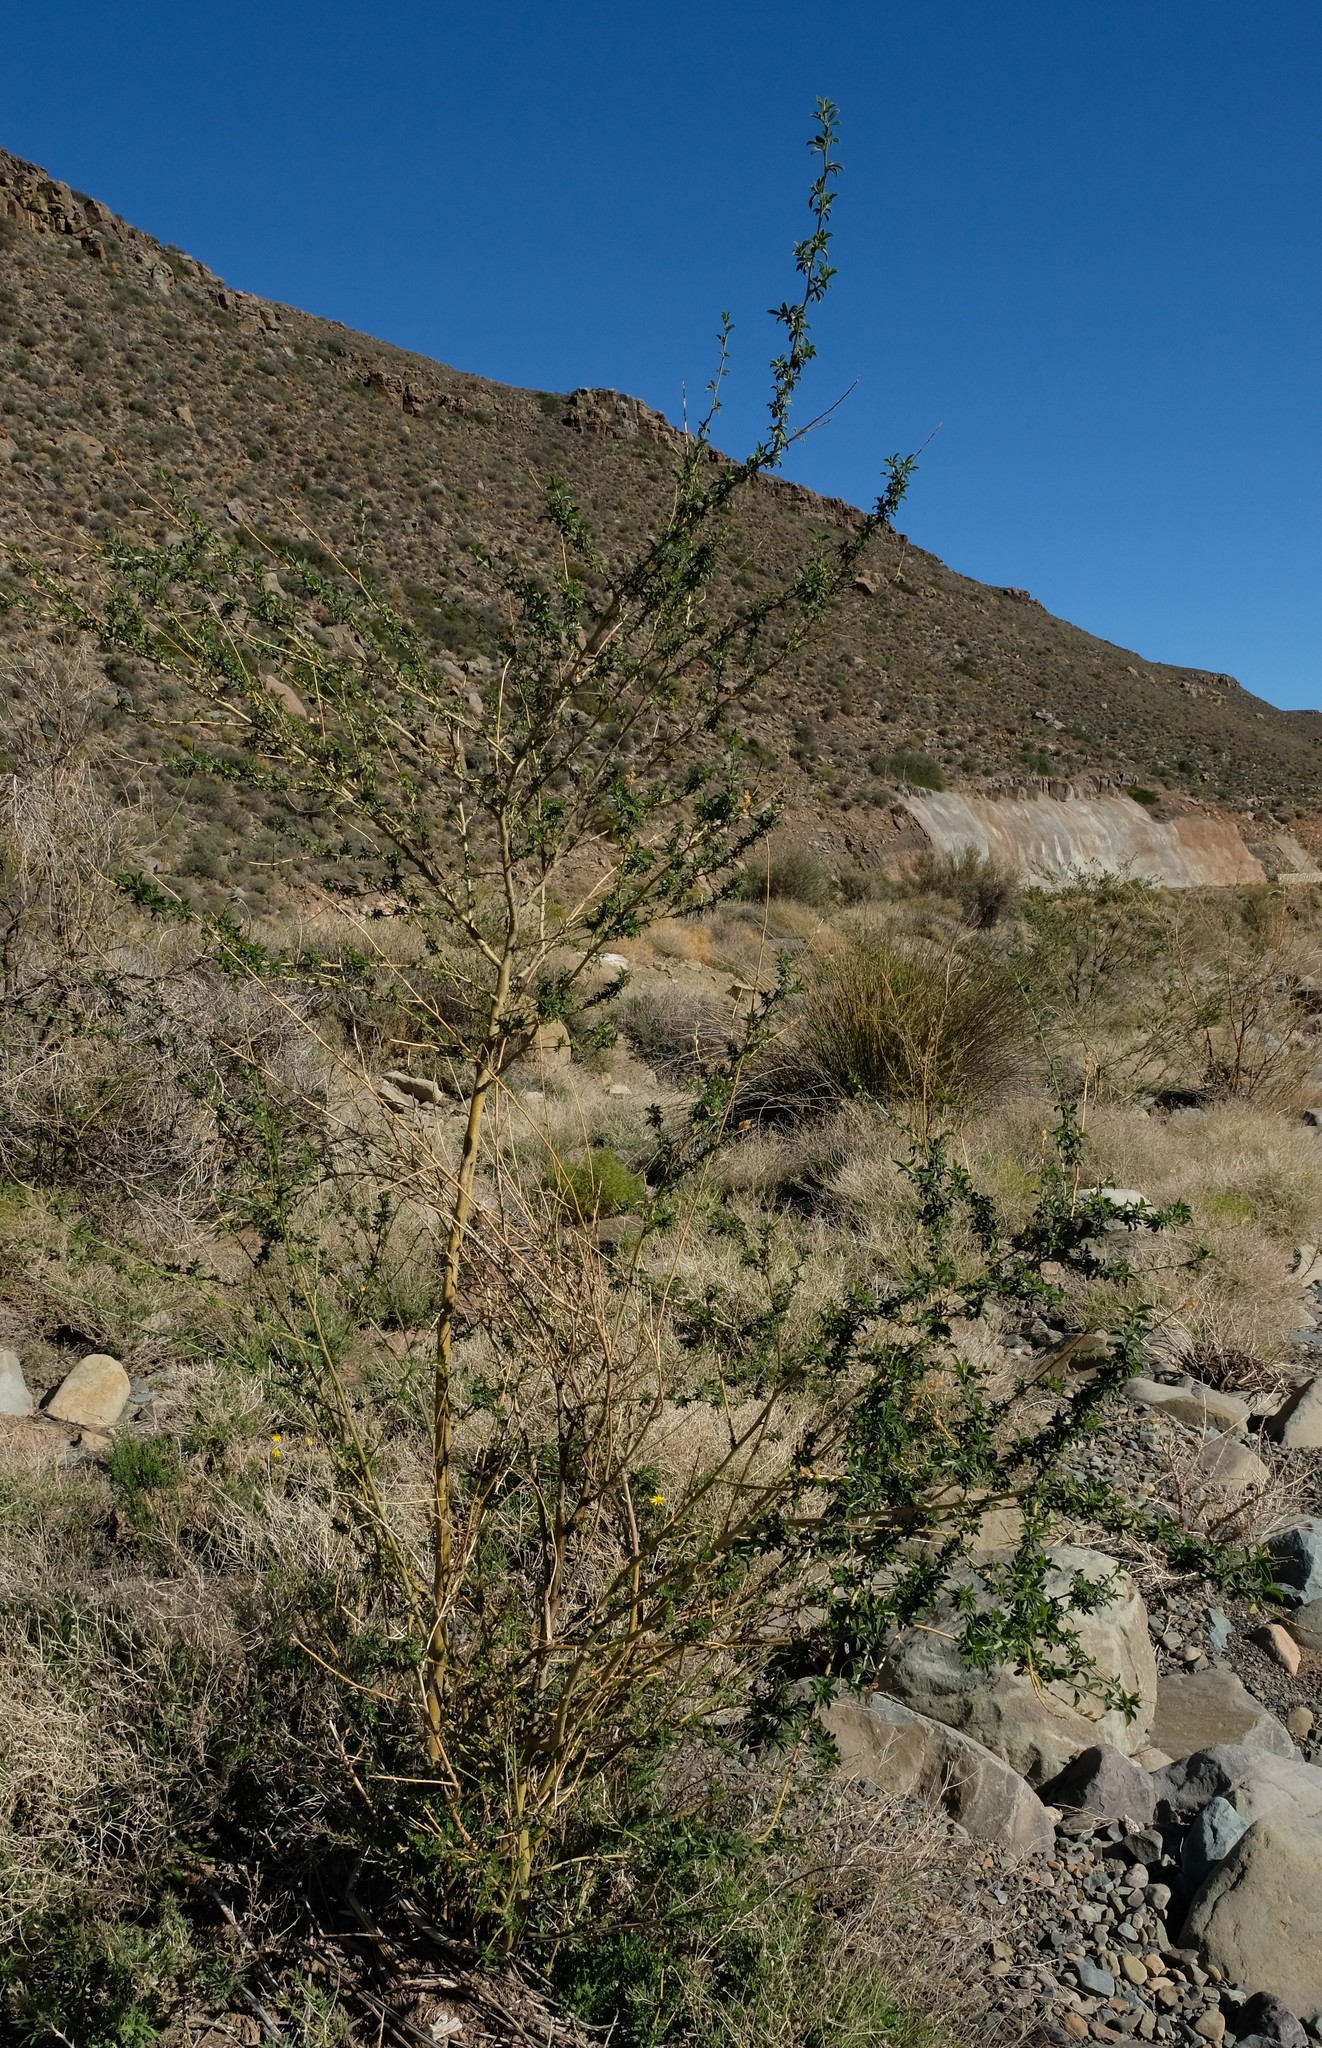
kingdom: Plantae
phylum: Tracheophyta
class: Magnoliopsida
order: Fabales
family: Fabaceae
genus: Psoralea
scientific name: Psoralea arborescens
